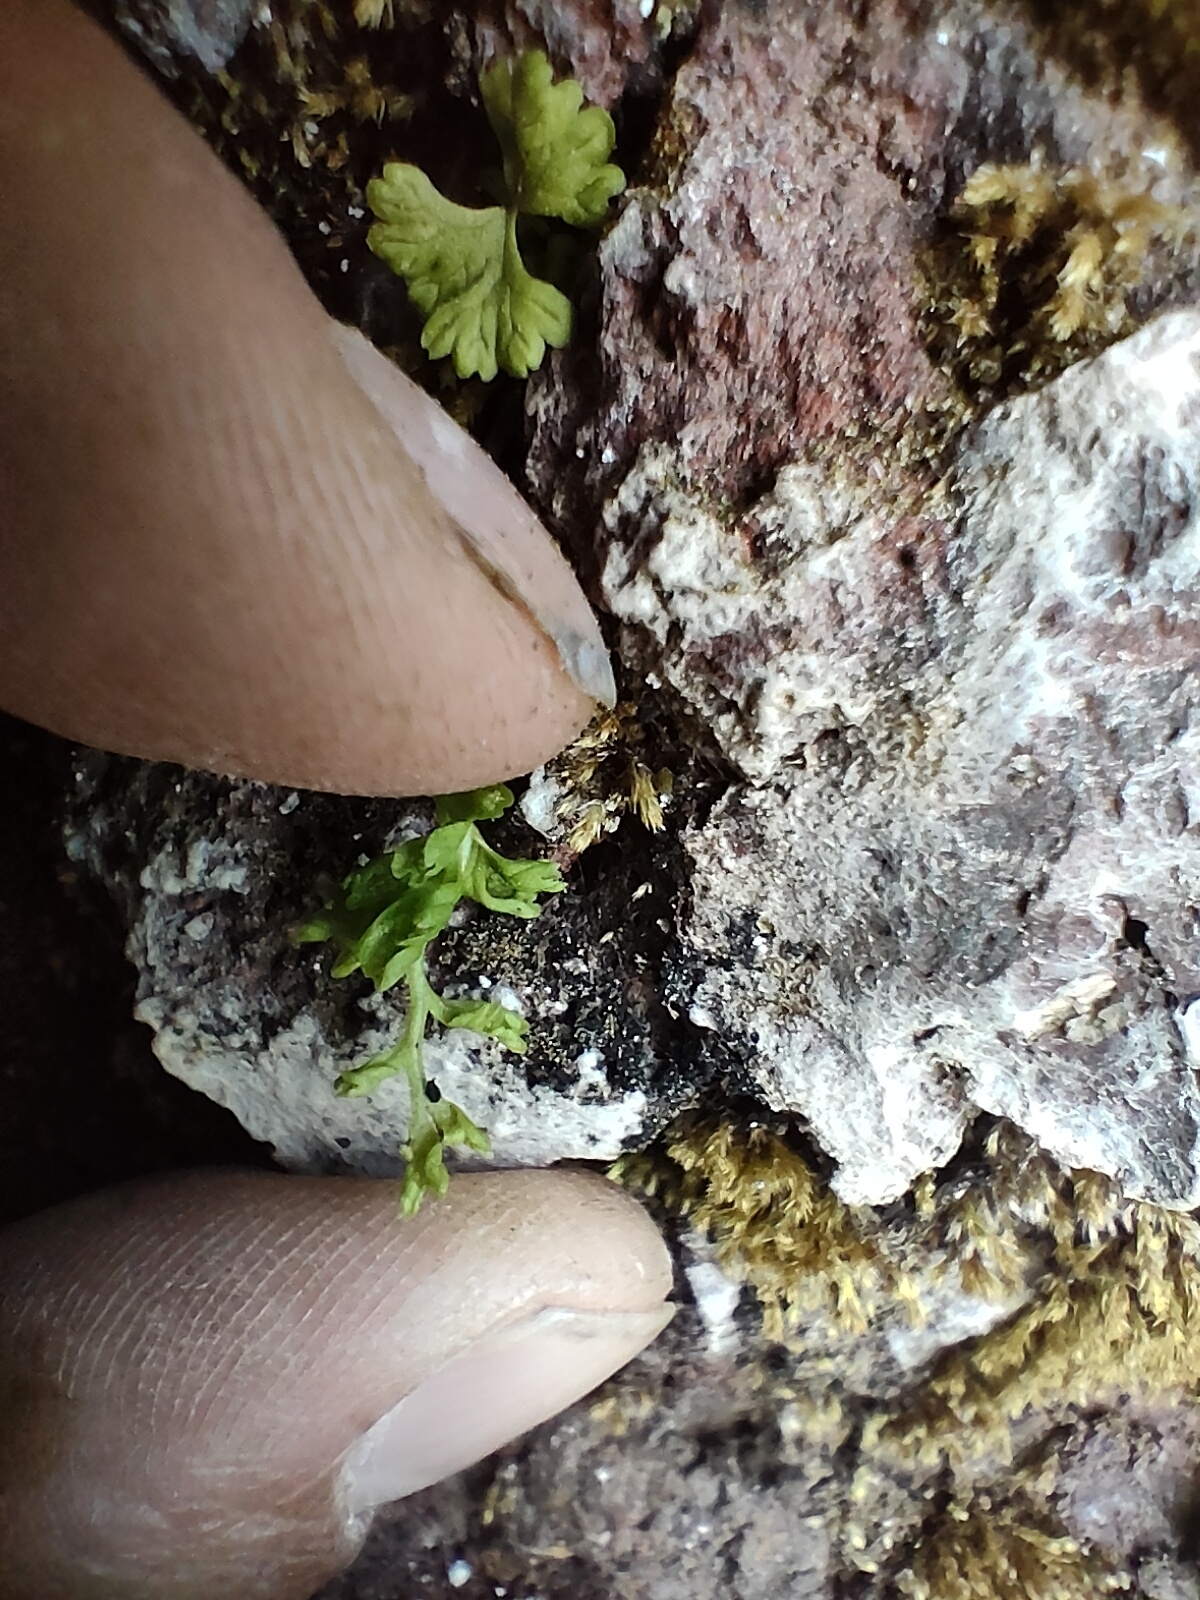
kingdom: Plantae
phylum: Tracheophyta
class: Polypodiopsida
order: Polypodiales
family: Pteridaceae
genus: Anogramma
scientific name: Anogramma leptophylla
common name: Jersey fern
